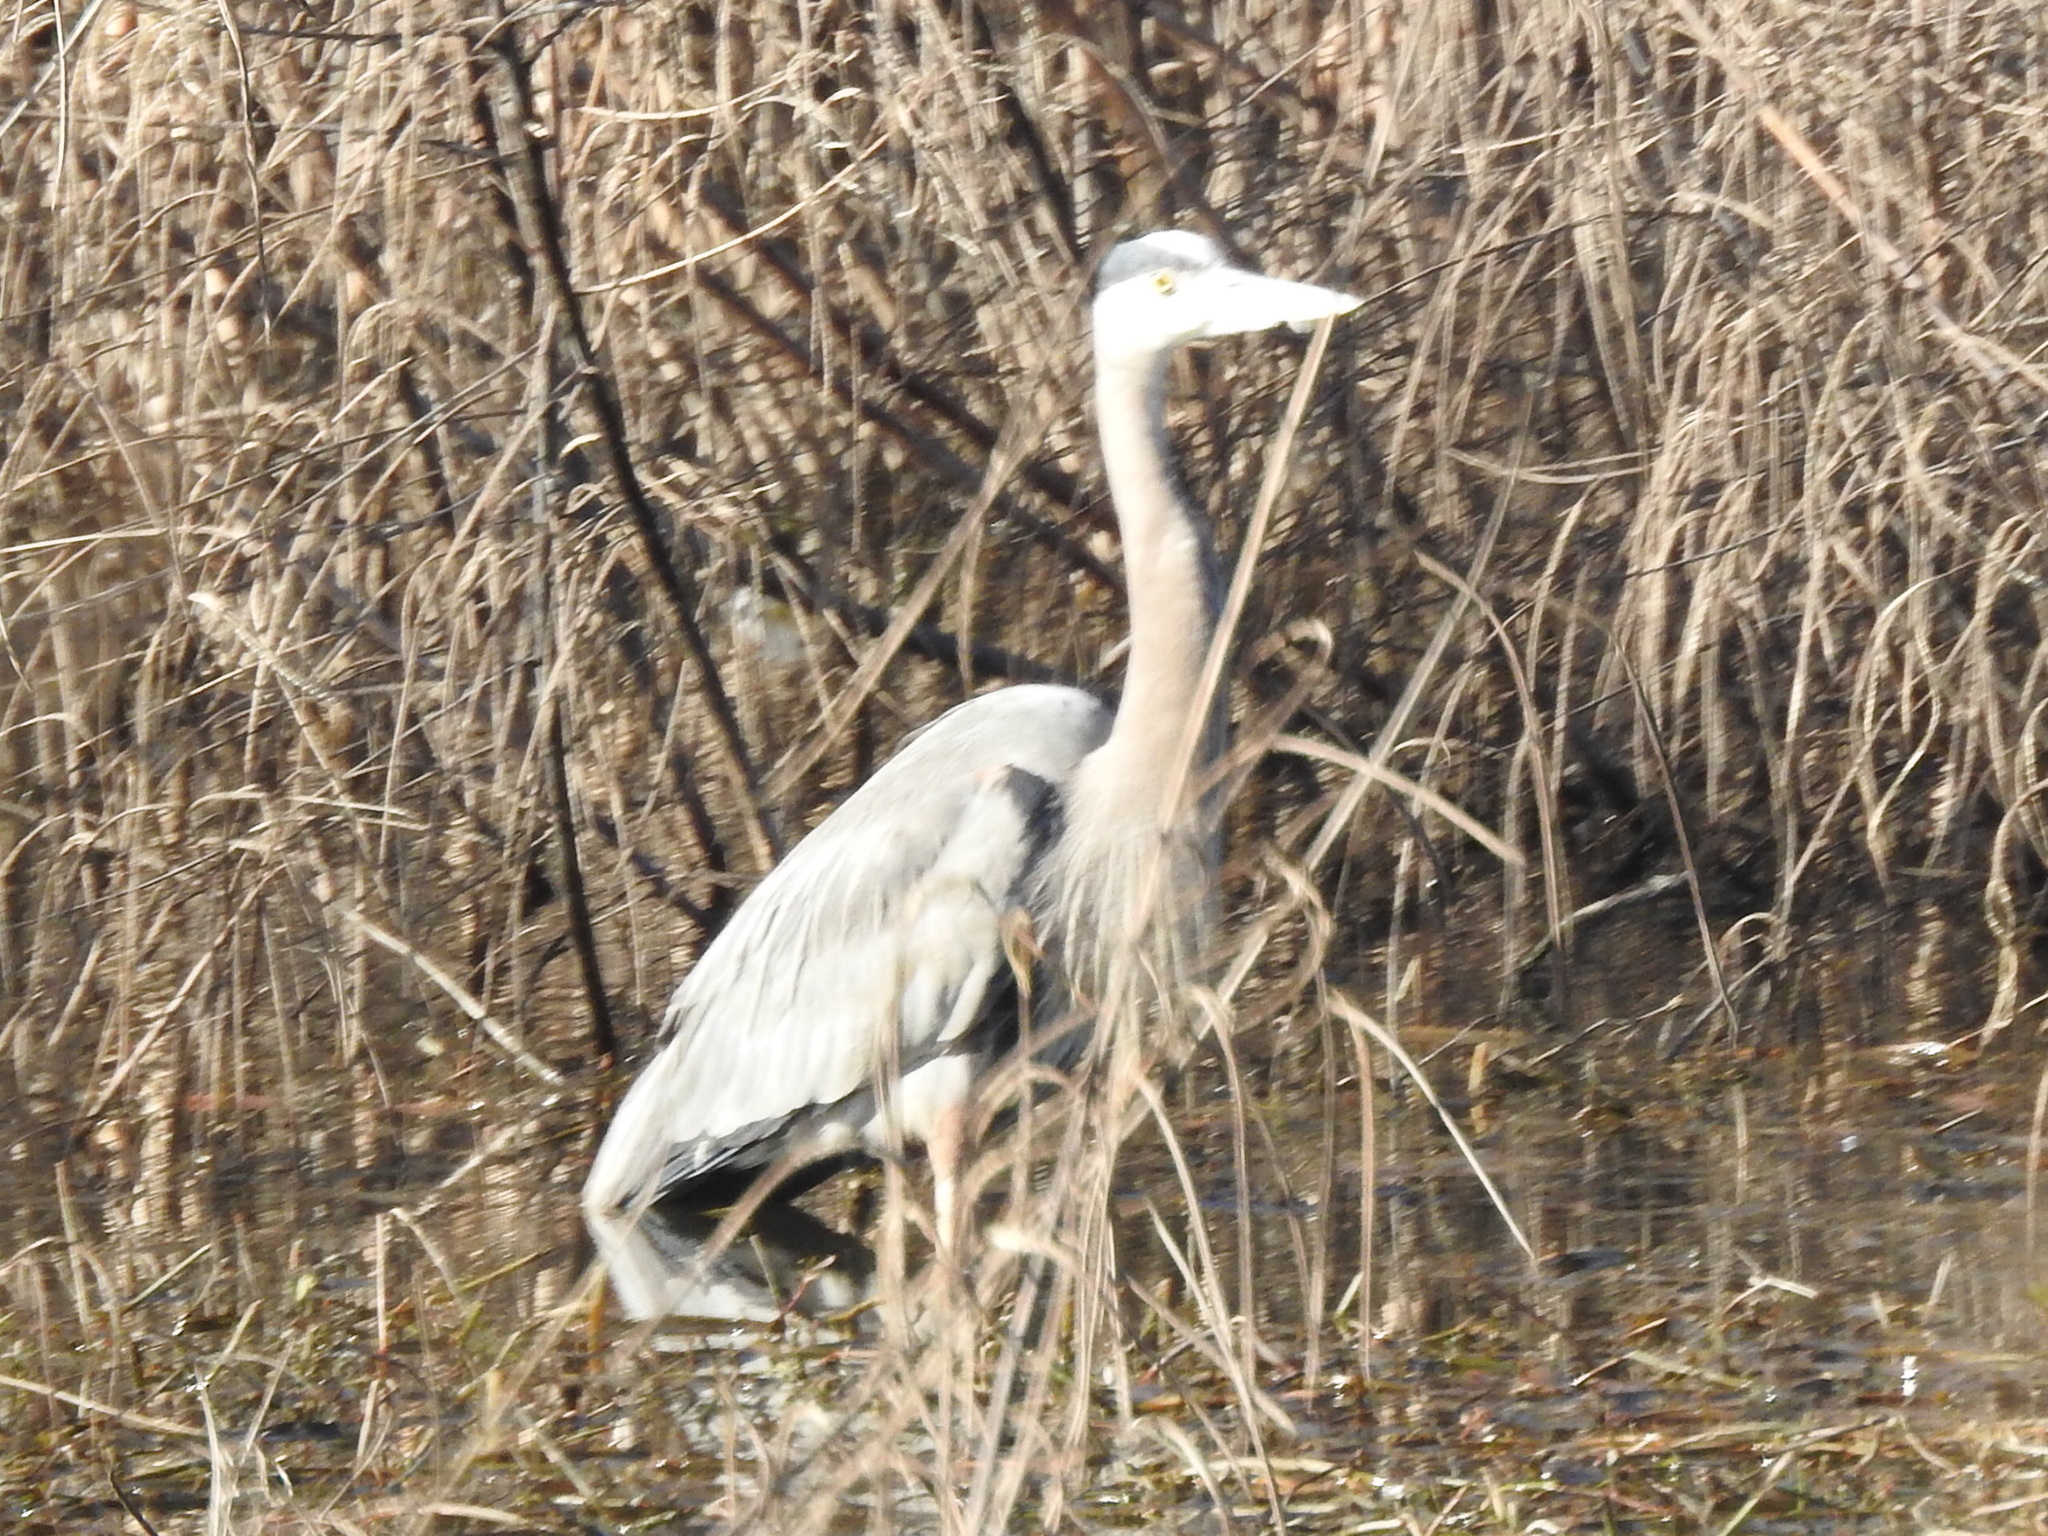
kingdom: Animalia
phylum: Chordata
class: Aves
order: Pelecaniformes
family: Ardeidae
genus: Ardea
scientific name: Ardea herodias
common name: Great blue heron
